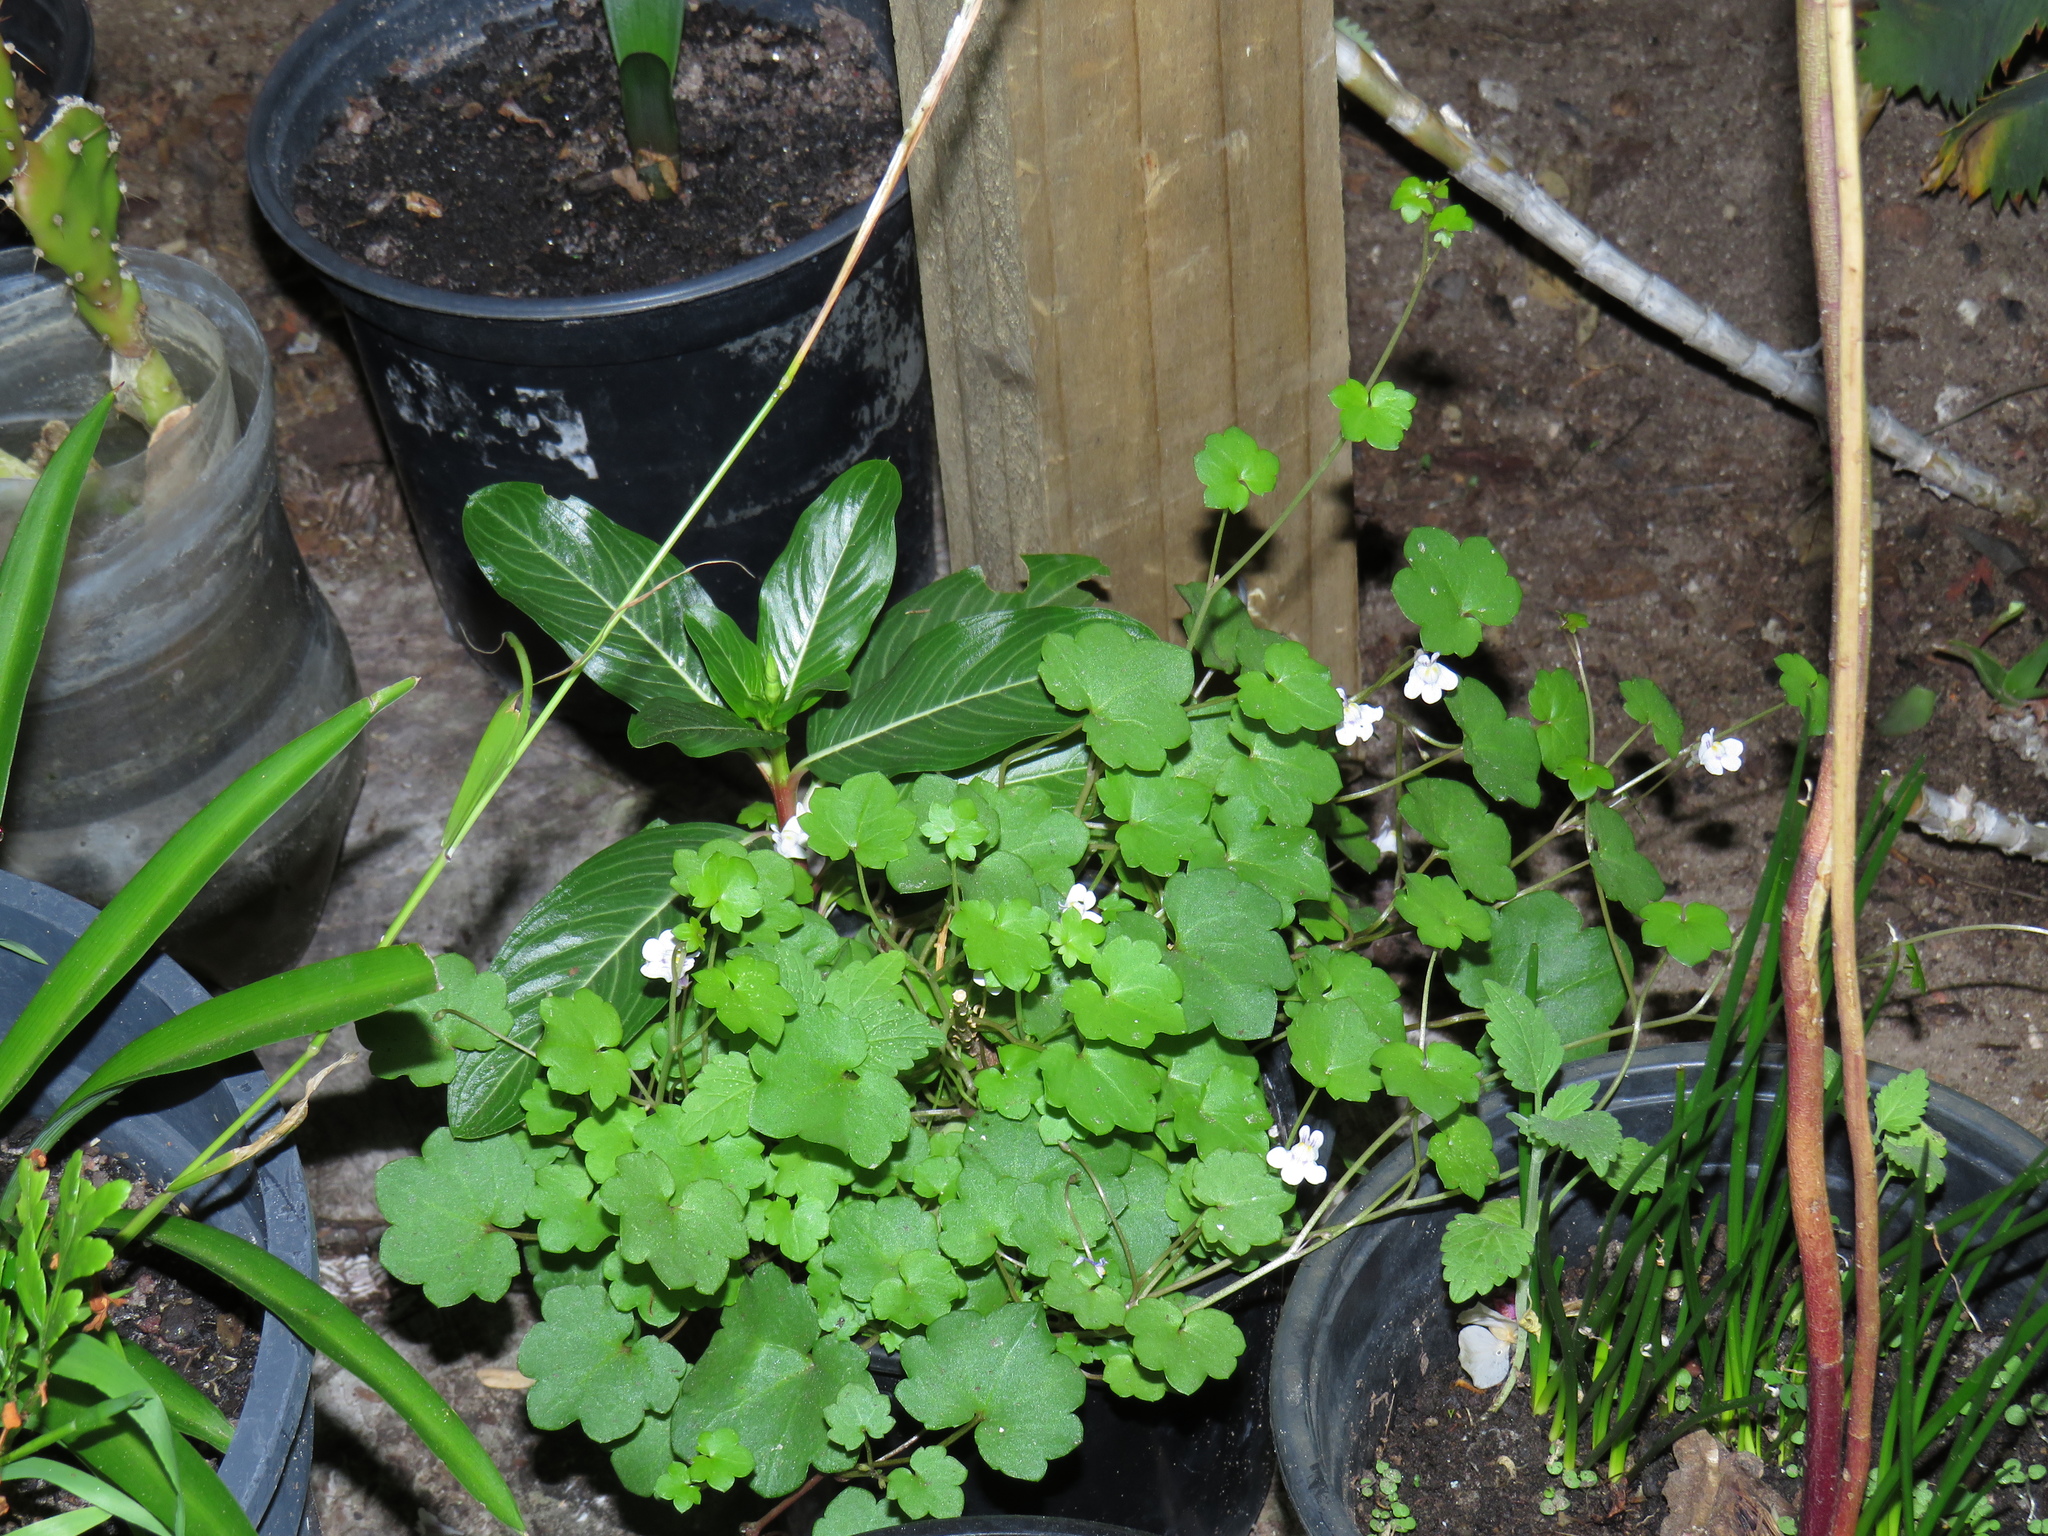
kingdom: Plantae
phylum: Tracheophyta
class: Magnoliopsida
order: Lamiales
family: Plantaginaceae
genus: Cymbalaria
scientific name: Cymbalaria muralis
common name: Ivy-leaved toadflax
